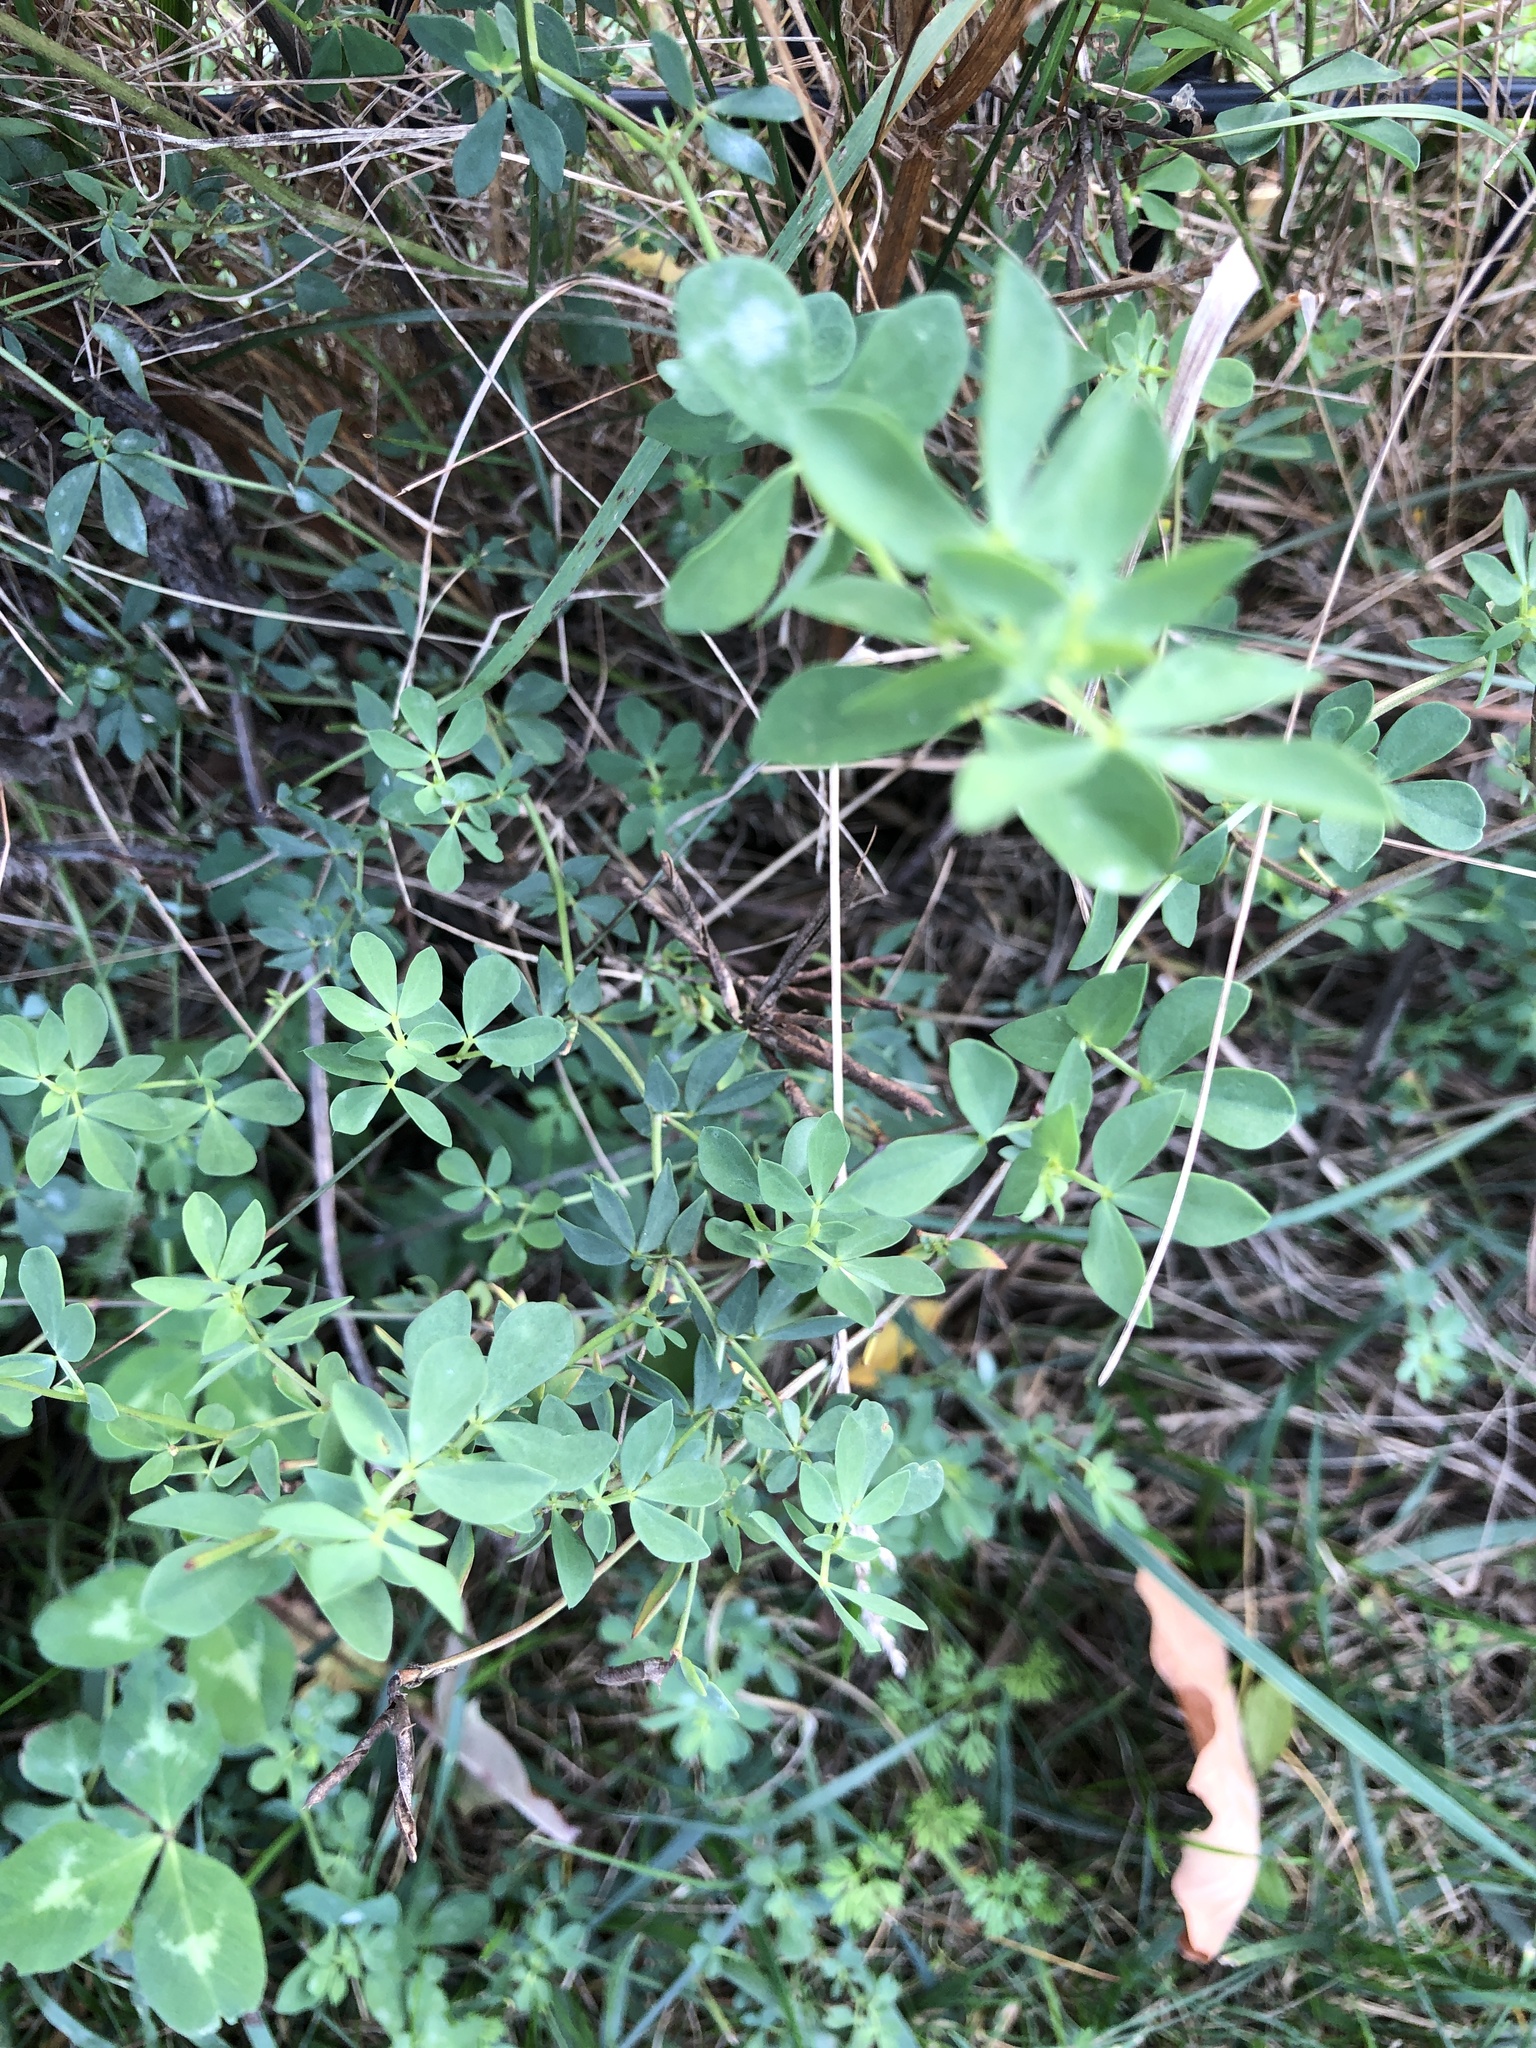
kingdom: Plantae
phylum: Tracheophyta
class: Magnoliopsida
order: Fabales
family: Fabaceae
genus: Lotus
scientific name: Lotus corniculatus
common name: Common bird's-foot-trefoil
